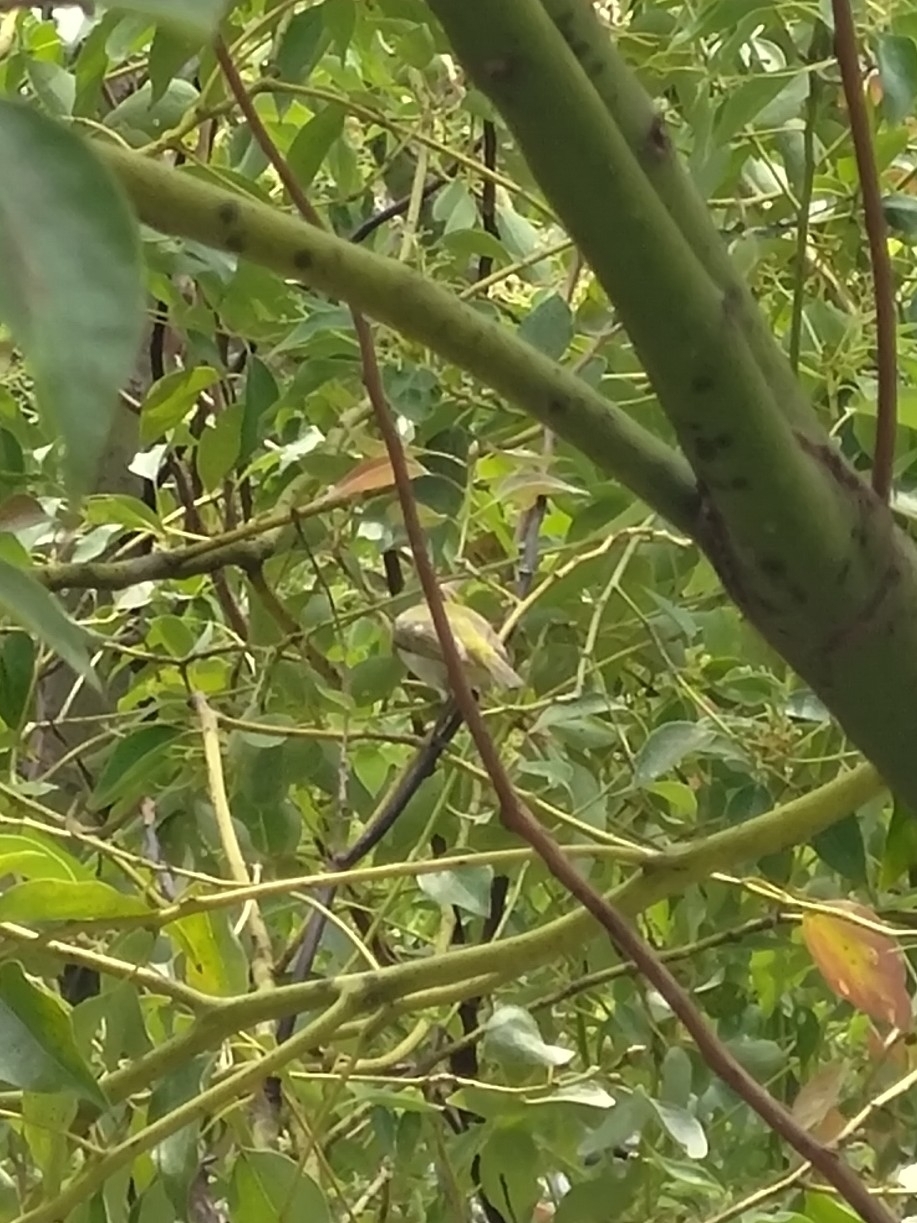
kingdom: Animalia
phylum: Chordata
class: Aves
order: Passeriformes
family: Zosteropidae
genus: Zosterops
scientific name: Zosterops simplex
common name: Swinhoe's white-eye
